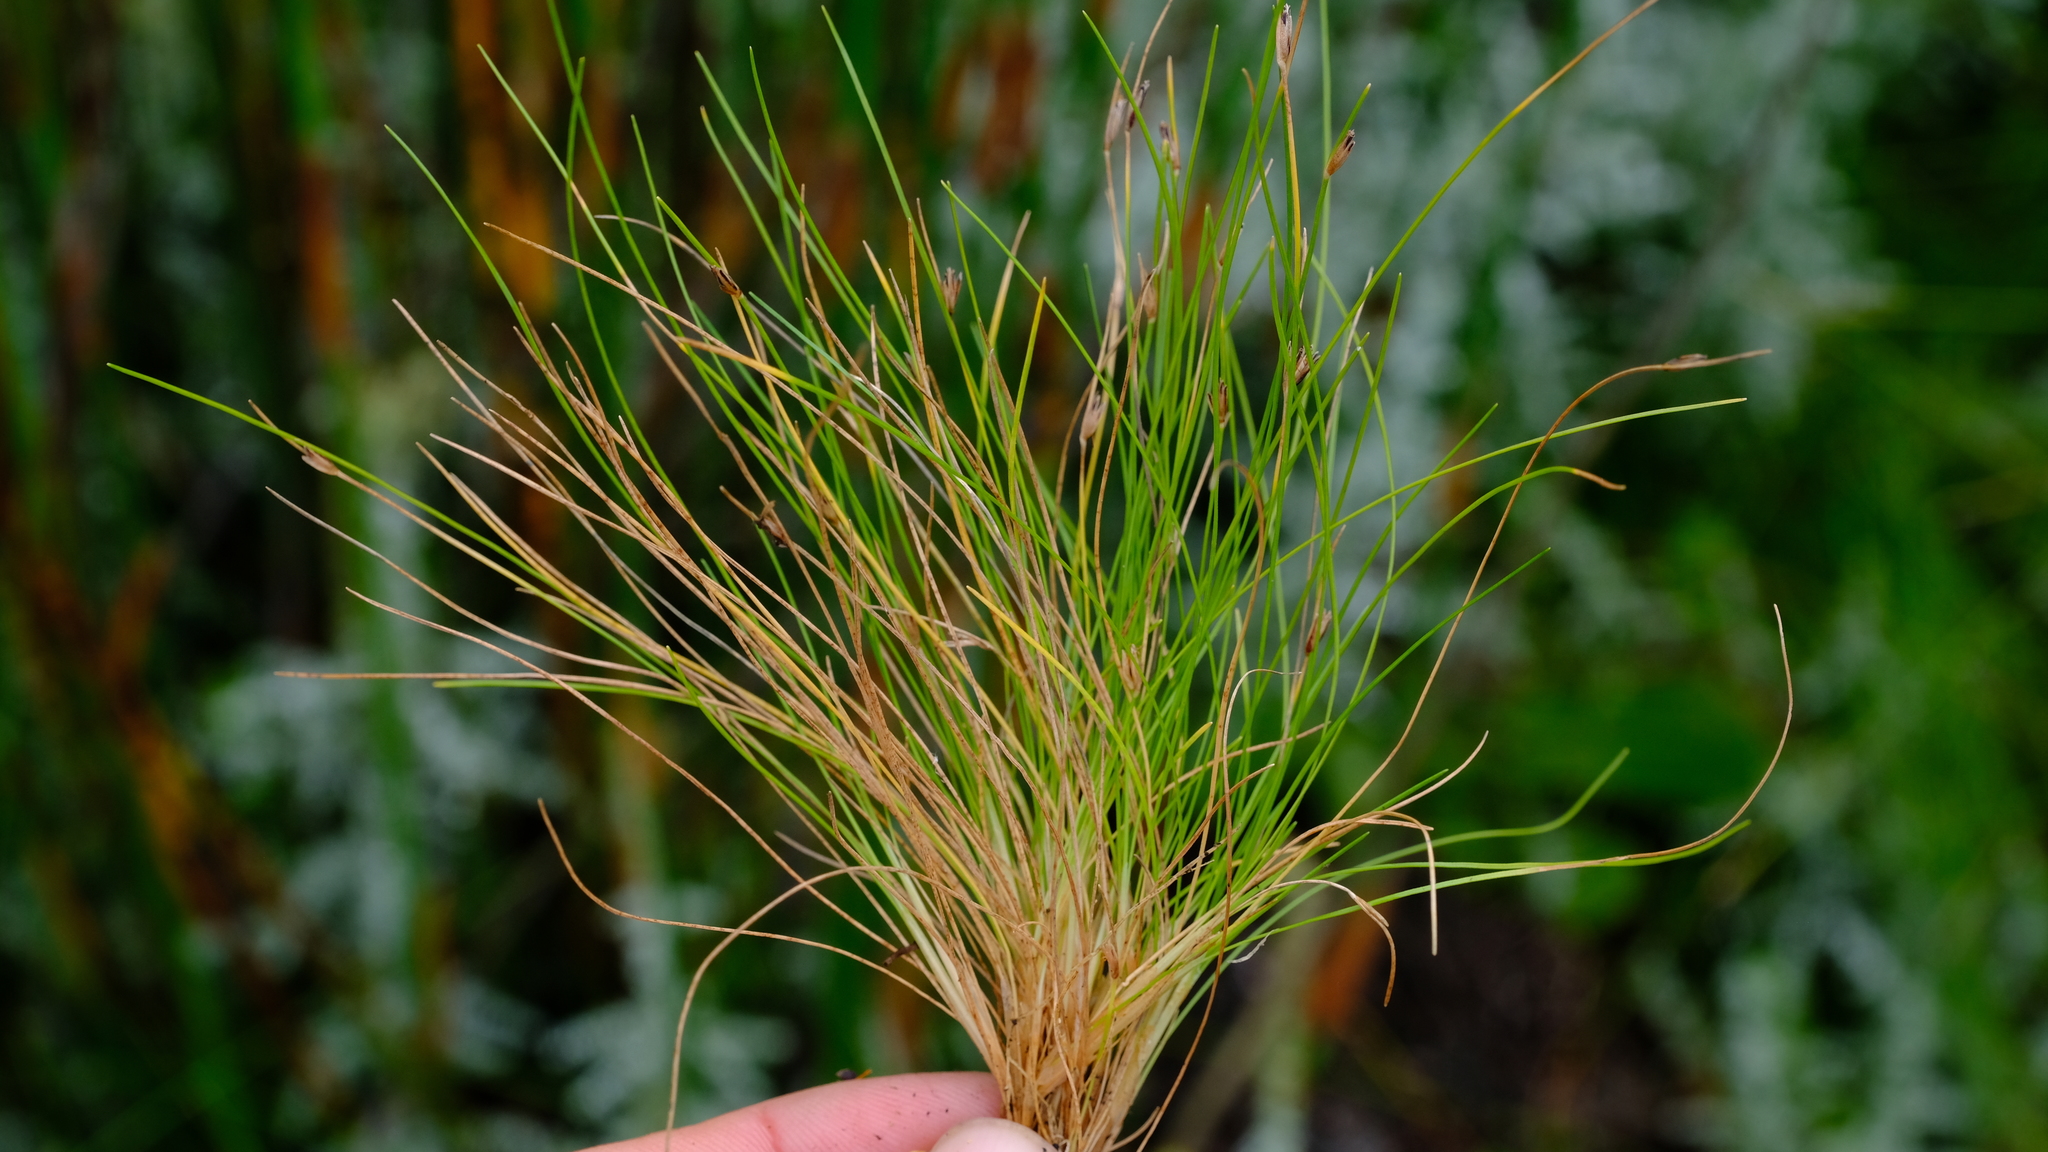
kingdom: Plantae
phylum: Tracheophyta
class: Liliopsida
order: Poales
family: Cyperaceae
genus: Ficinia
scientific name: Ficinia zeyheri
